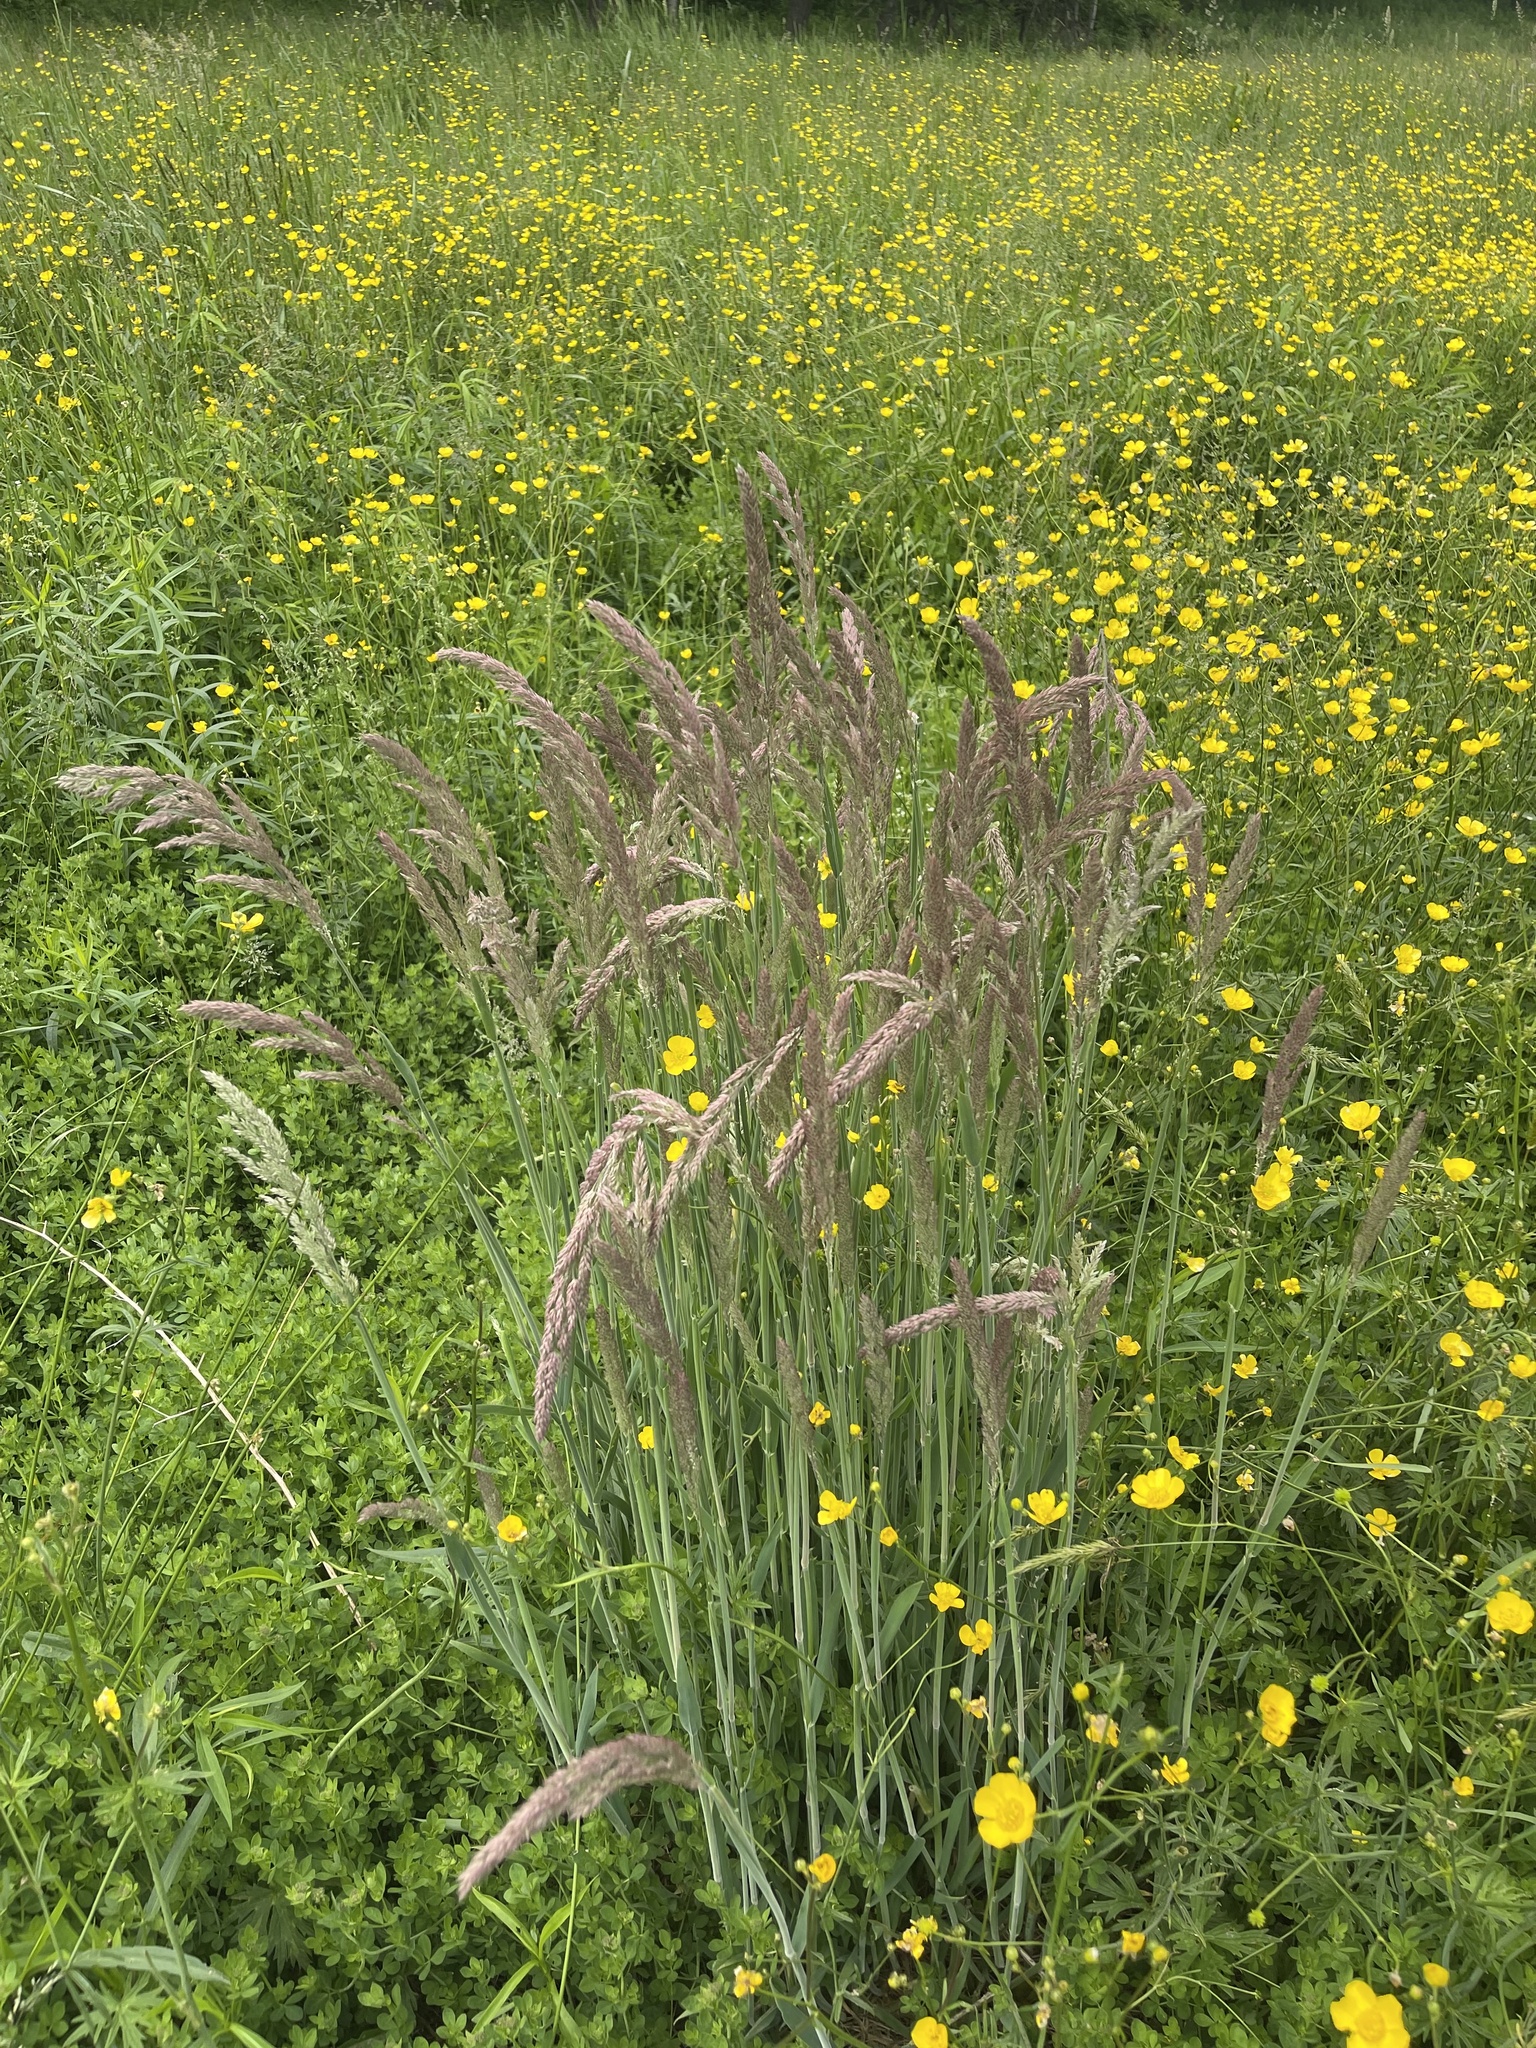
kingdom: Plantae
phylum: Tracheophyta
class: Liliopsida
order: Poales
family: Poaceae
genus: Holcus
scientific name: Holcus lanatus
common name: Yorkshire-fog
